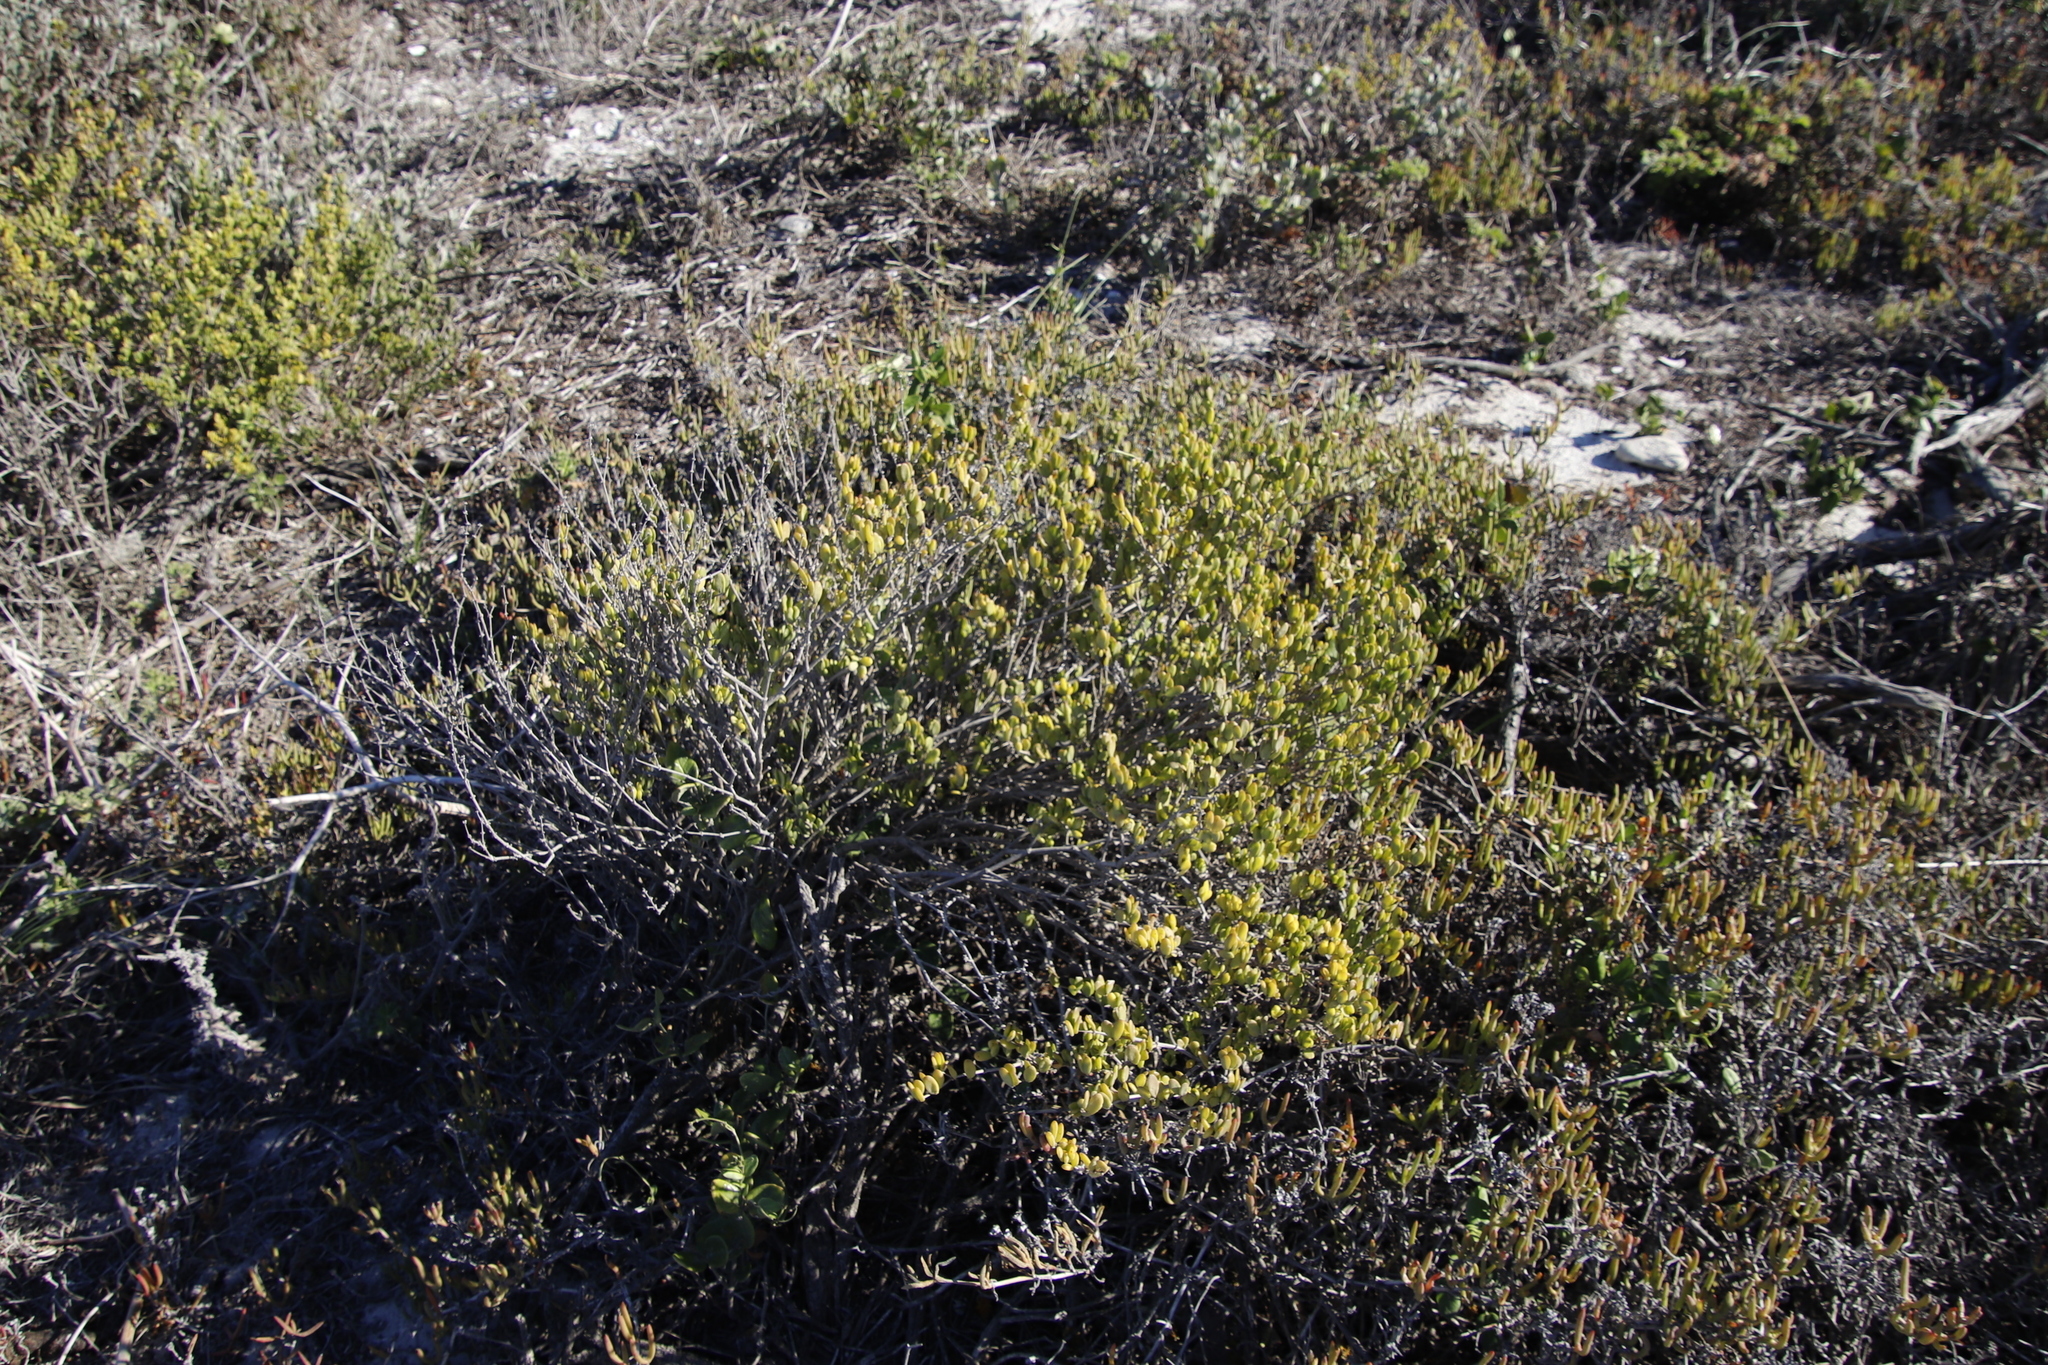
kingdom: Plantae
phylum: Tracheophyta
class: Magnoliopsida
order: Zygophyllales
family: Zygophyllaceae
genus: Roepera
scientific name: Roepera flexuosa
